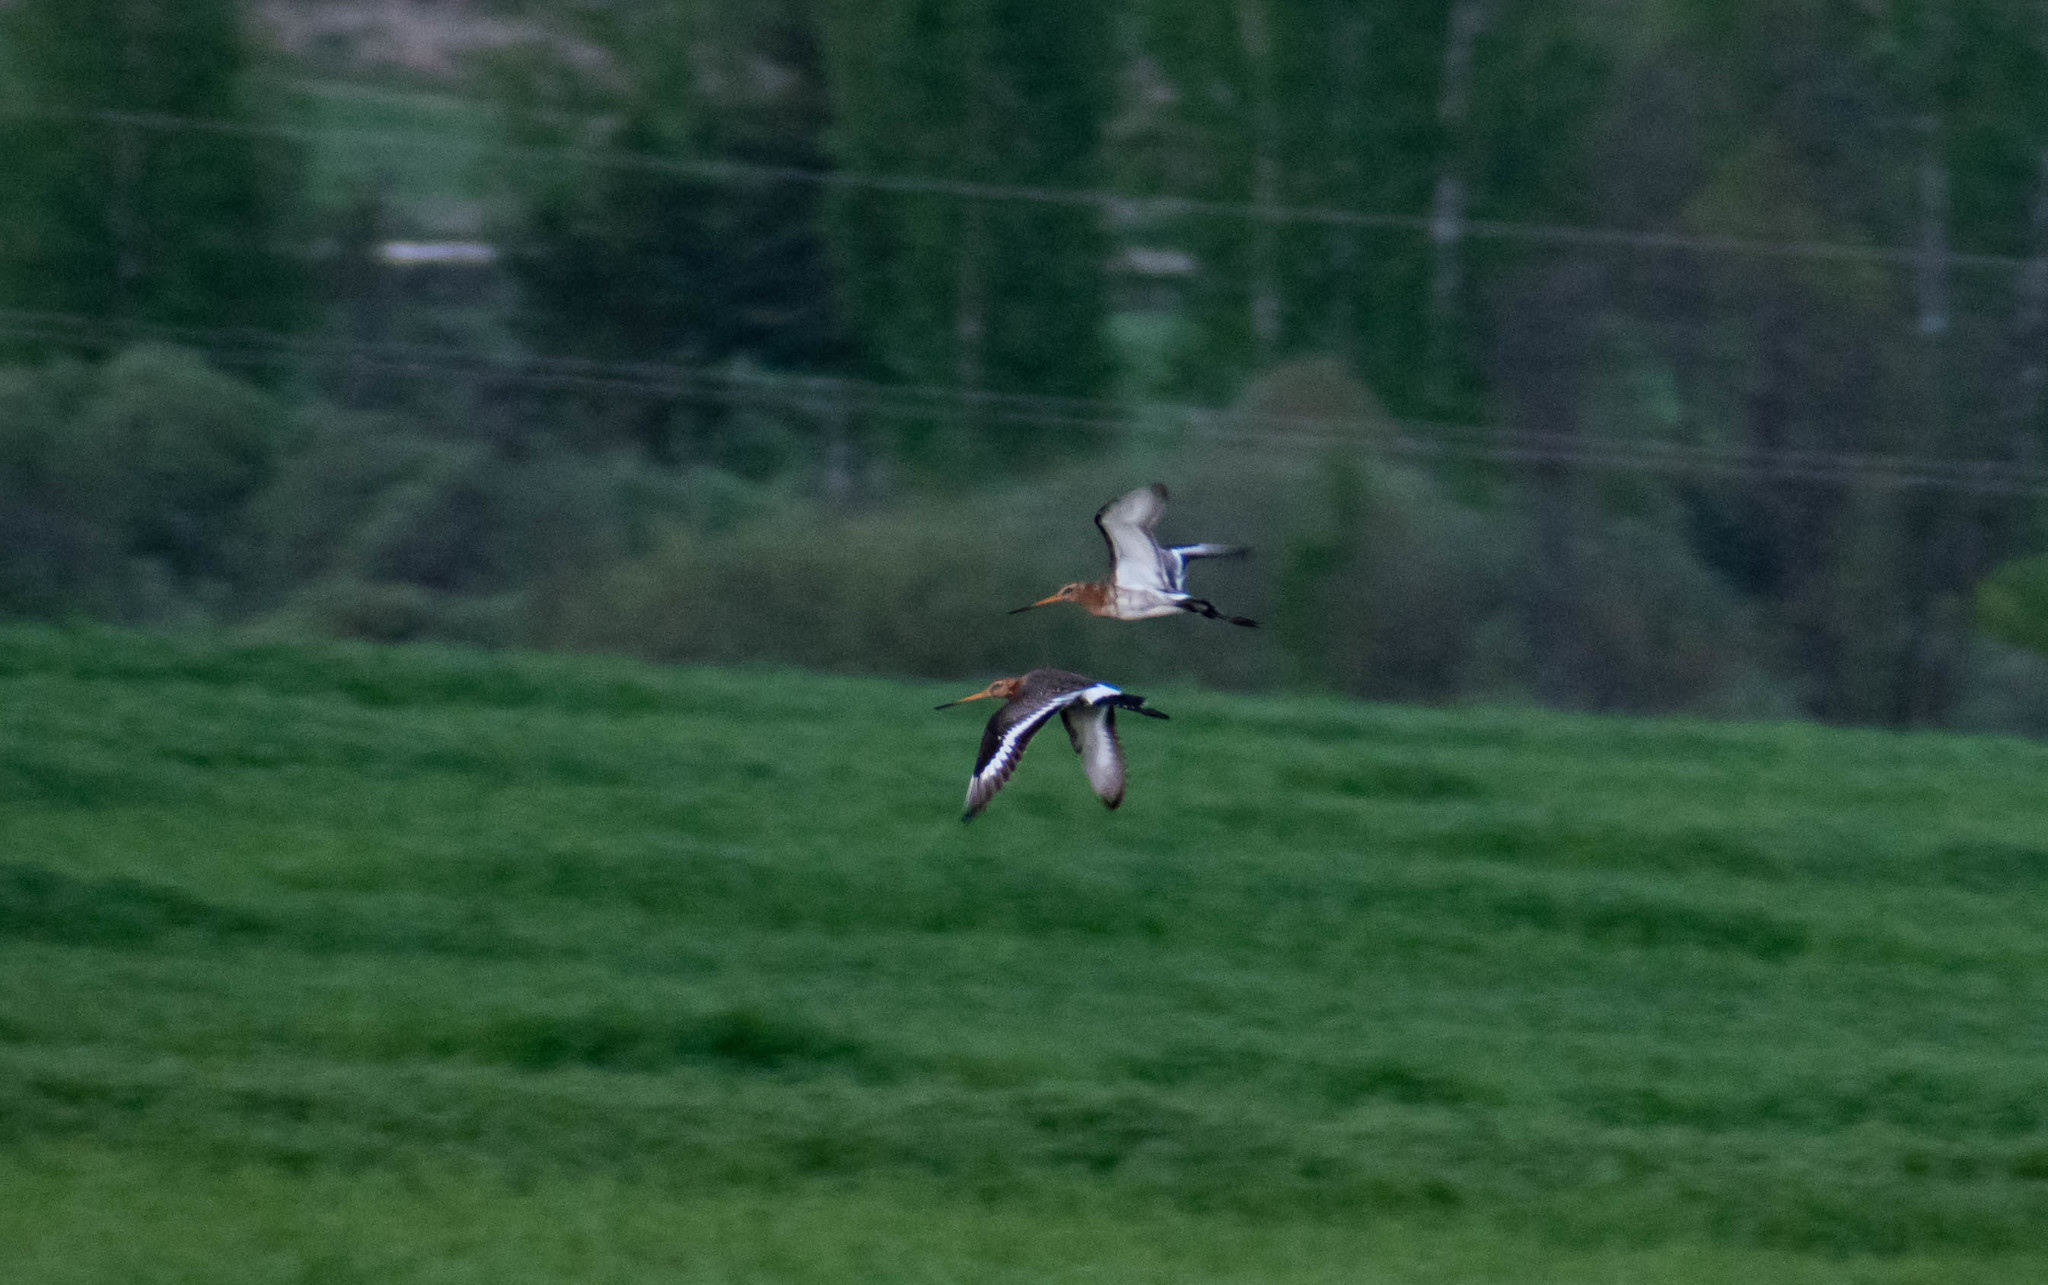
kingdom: Animalia
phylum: Chordata
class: Aves
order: Charadriiformes
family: Scolopacidae
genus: Limosa
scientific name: Limosa limosa
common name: Black-tailed godwit
